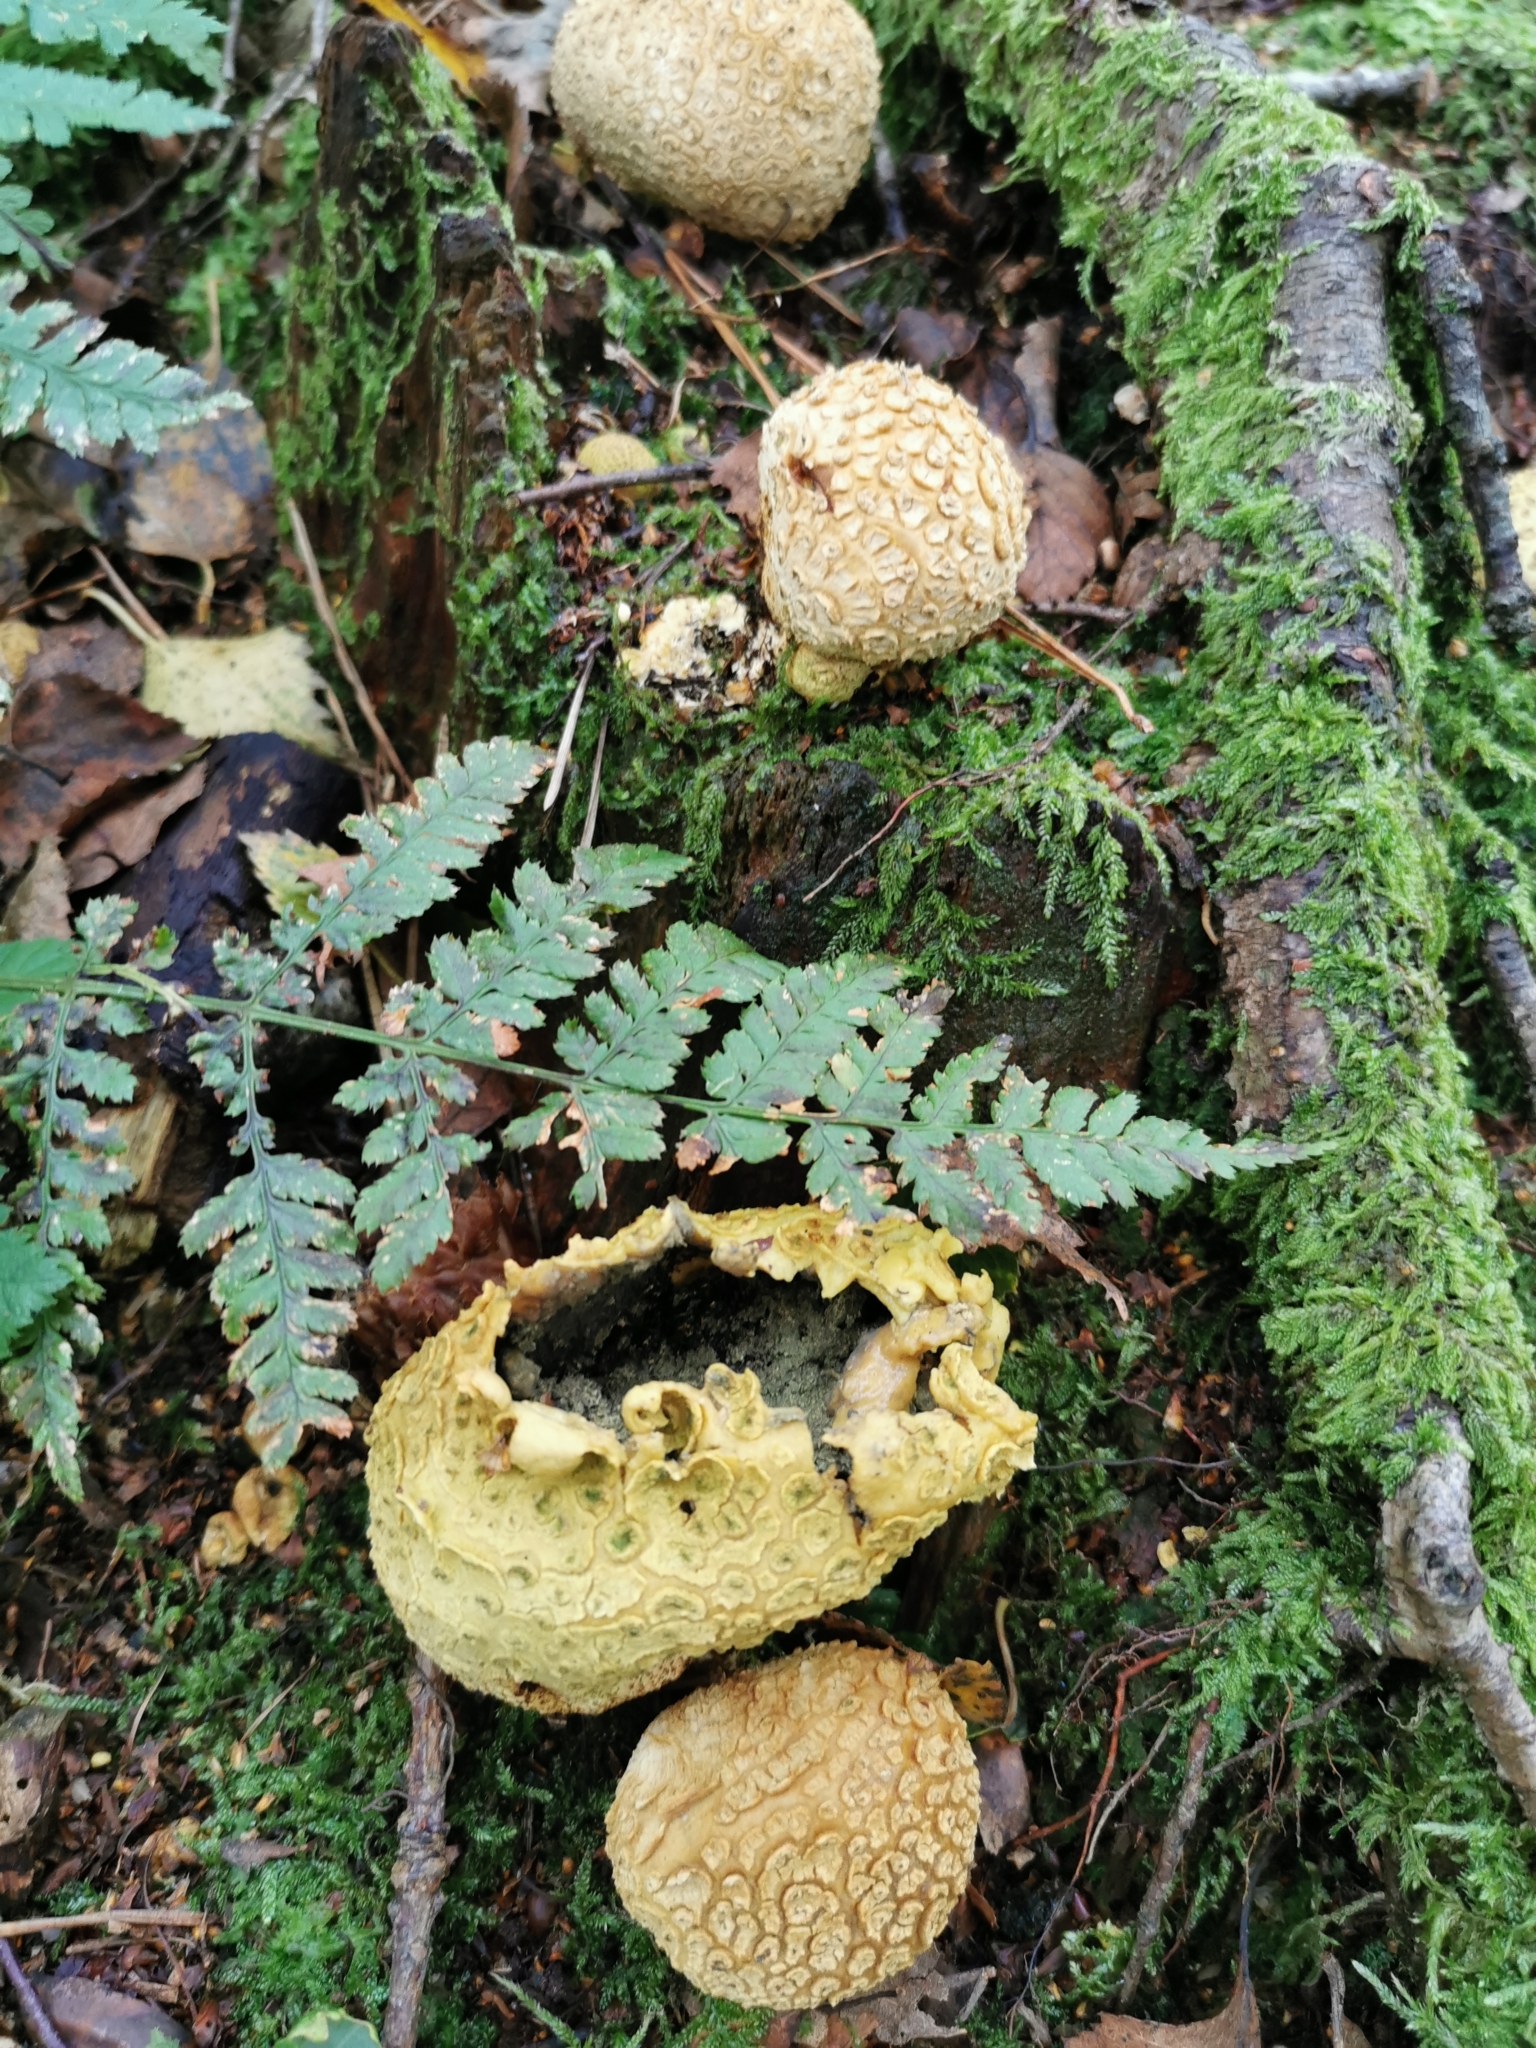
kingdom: Fungi
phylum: Basidiomycota
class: Agaricomycetes
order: Boletales
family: Sclerodermataceae
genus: Scleroderma
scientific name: Scleroderma citrinum
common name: Common earthball
